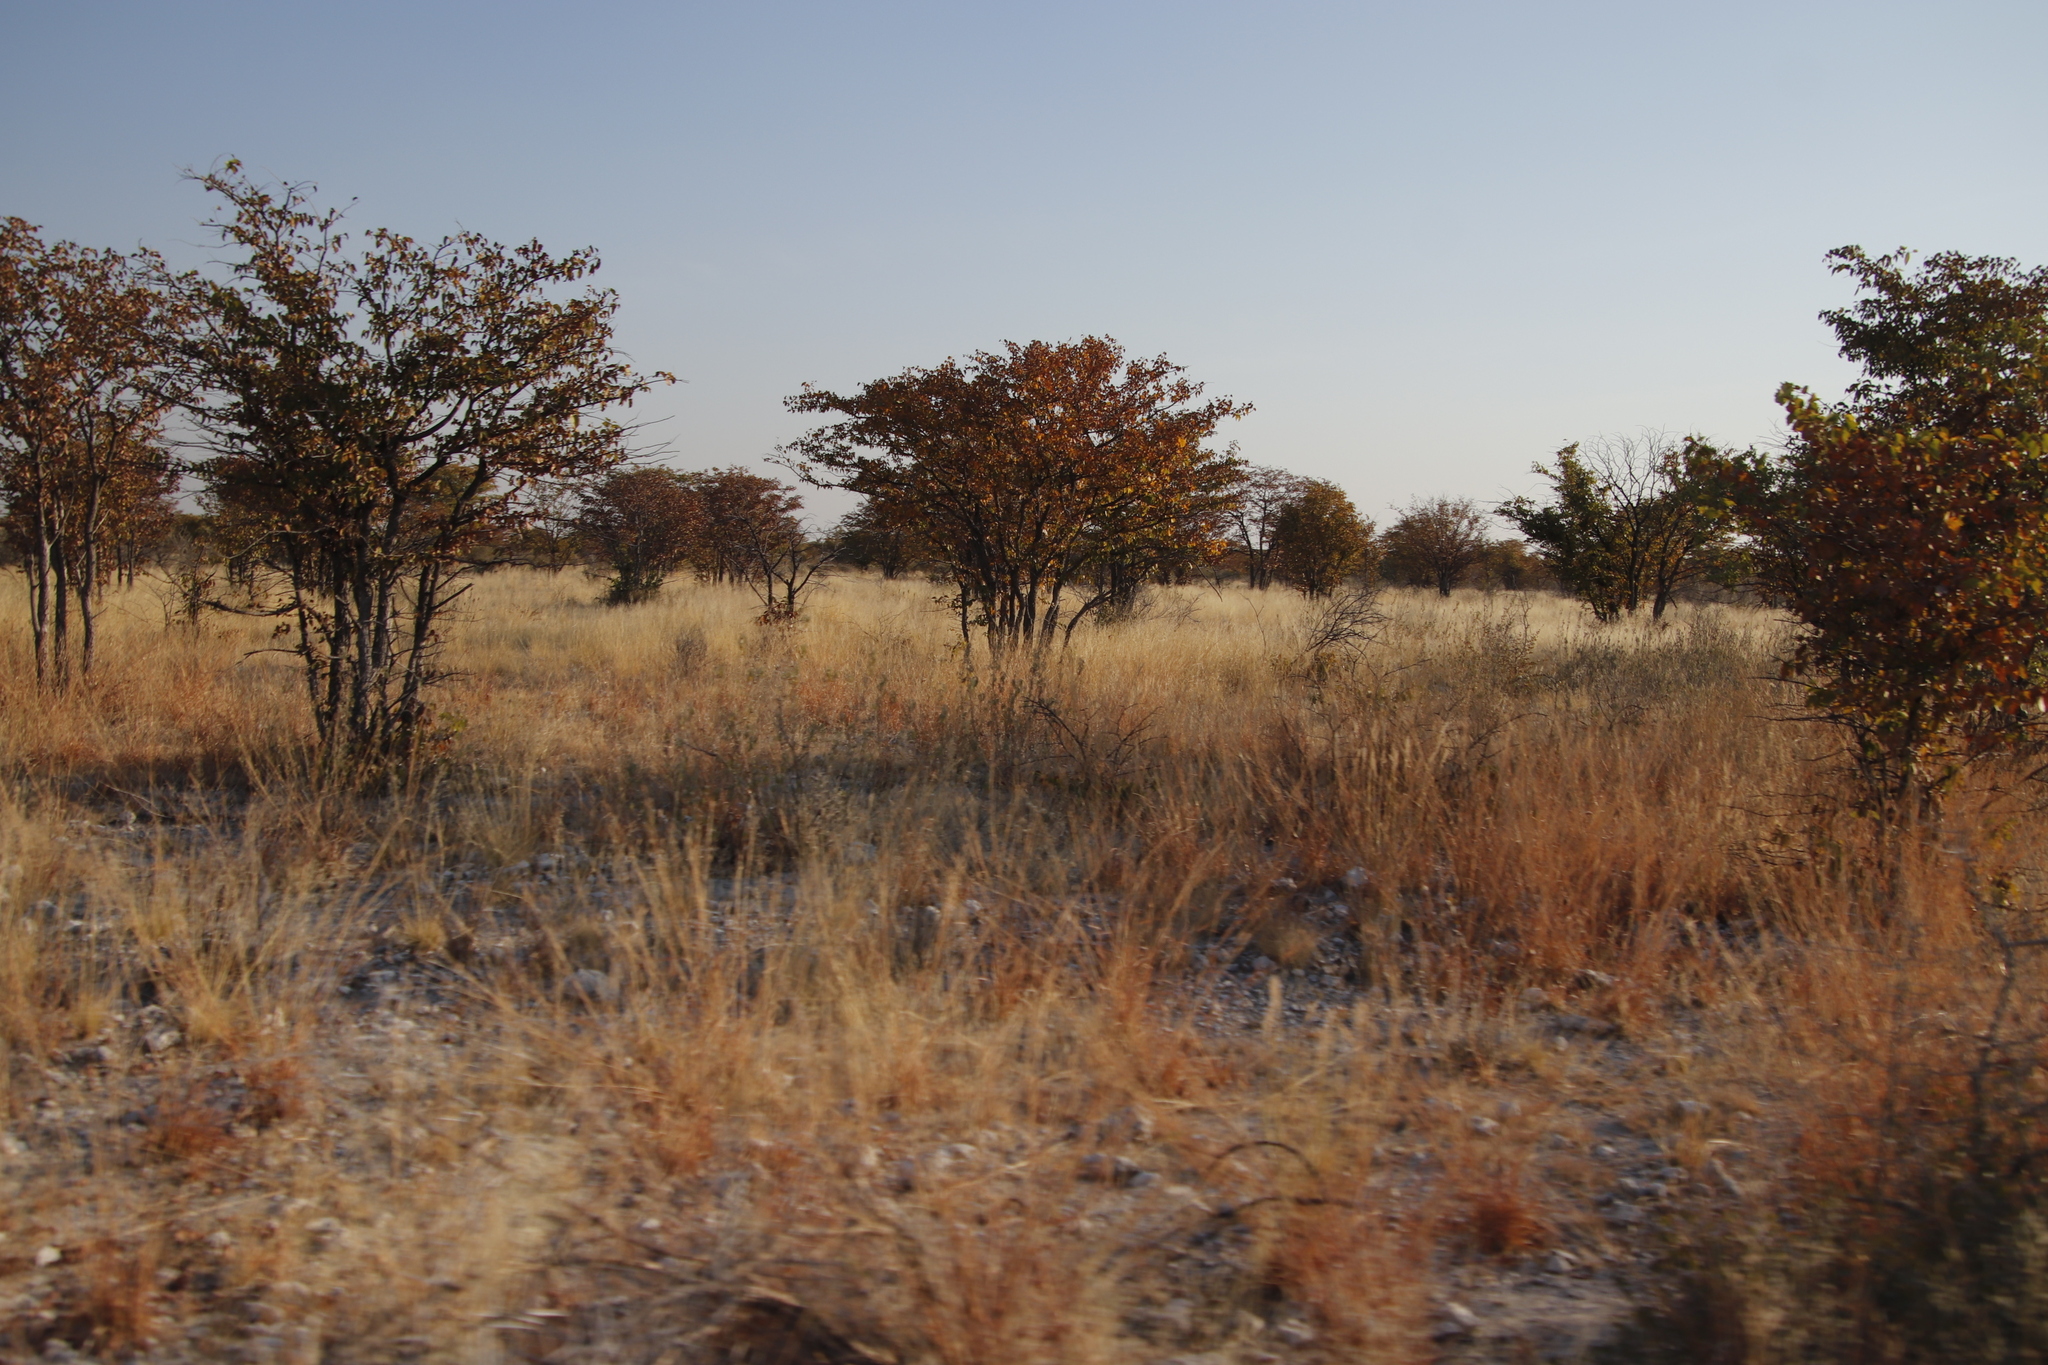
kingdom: Plantae
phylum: Tracheophyta
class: Magnoliopsida
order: Fabales
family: Fabaceae
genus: Colophospermum
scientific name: Colophospermum mopane
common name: Mopane
